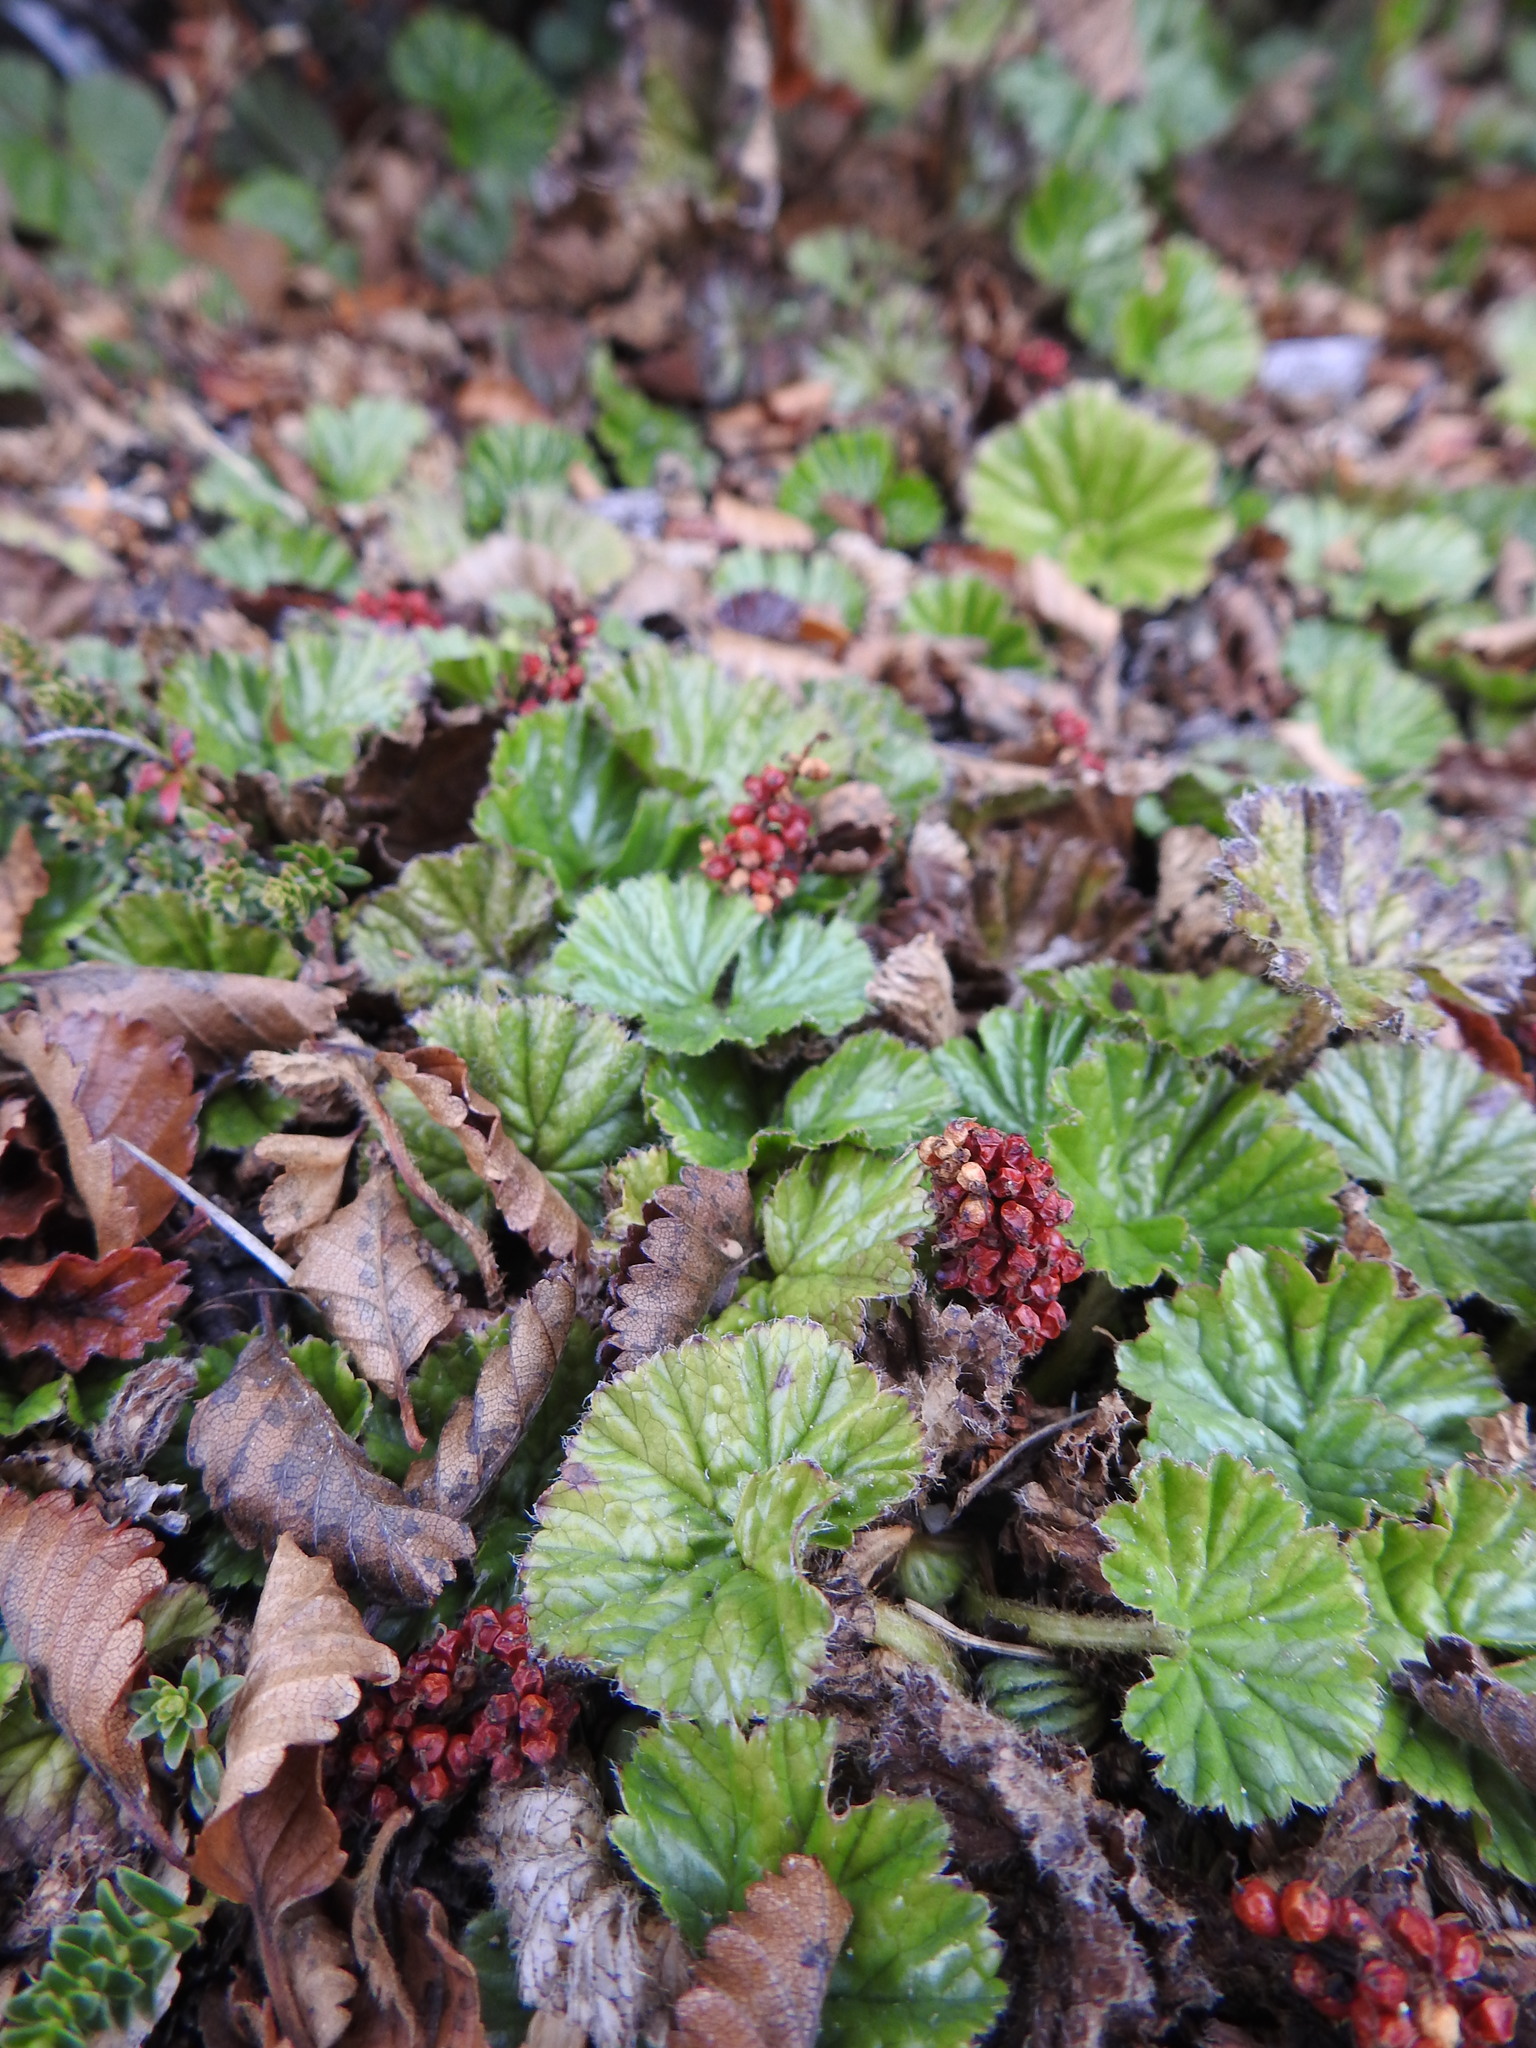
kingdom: Plantae
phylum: Tracheophyta
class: Magnoliopsida
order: Gunnerales
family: Gunneraceae
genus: Gunnera
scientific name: Gunnera magellanica
